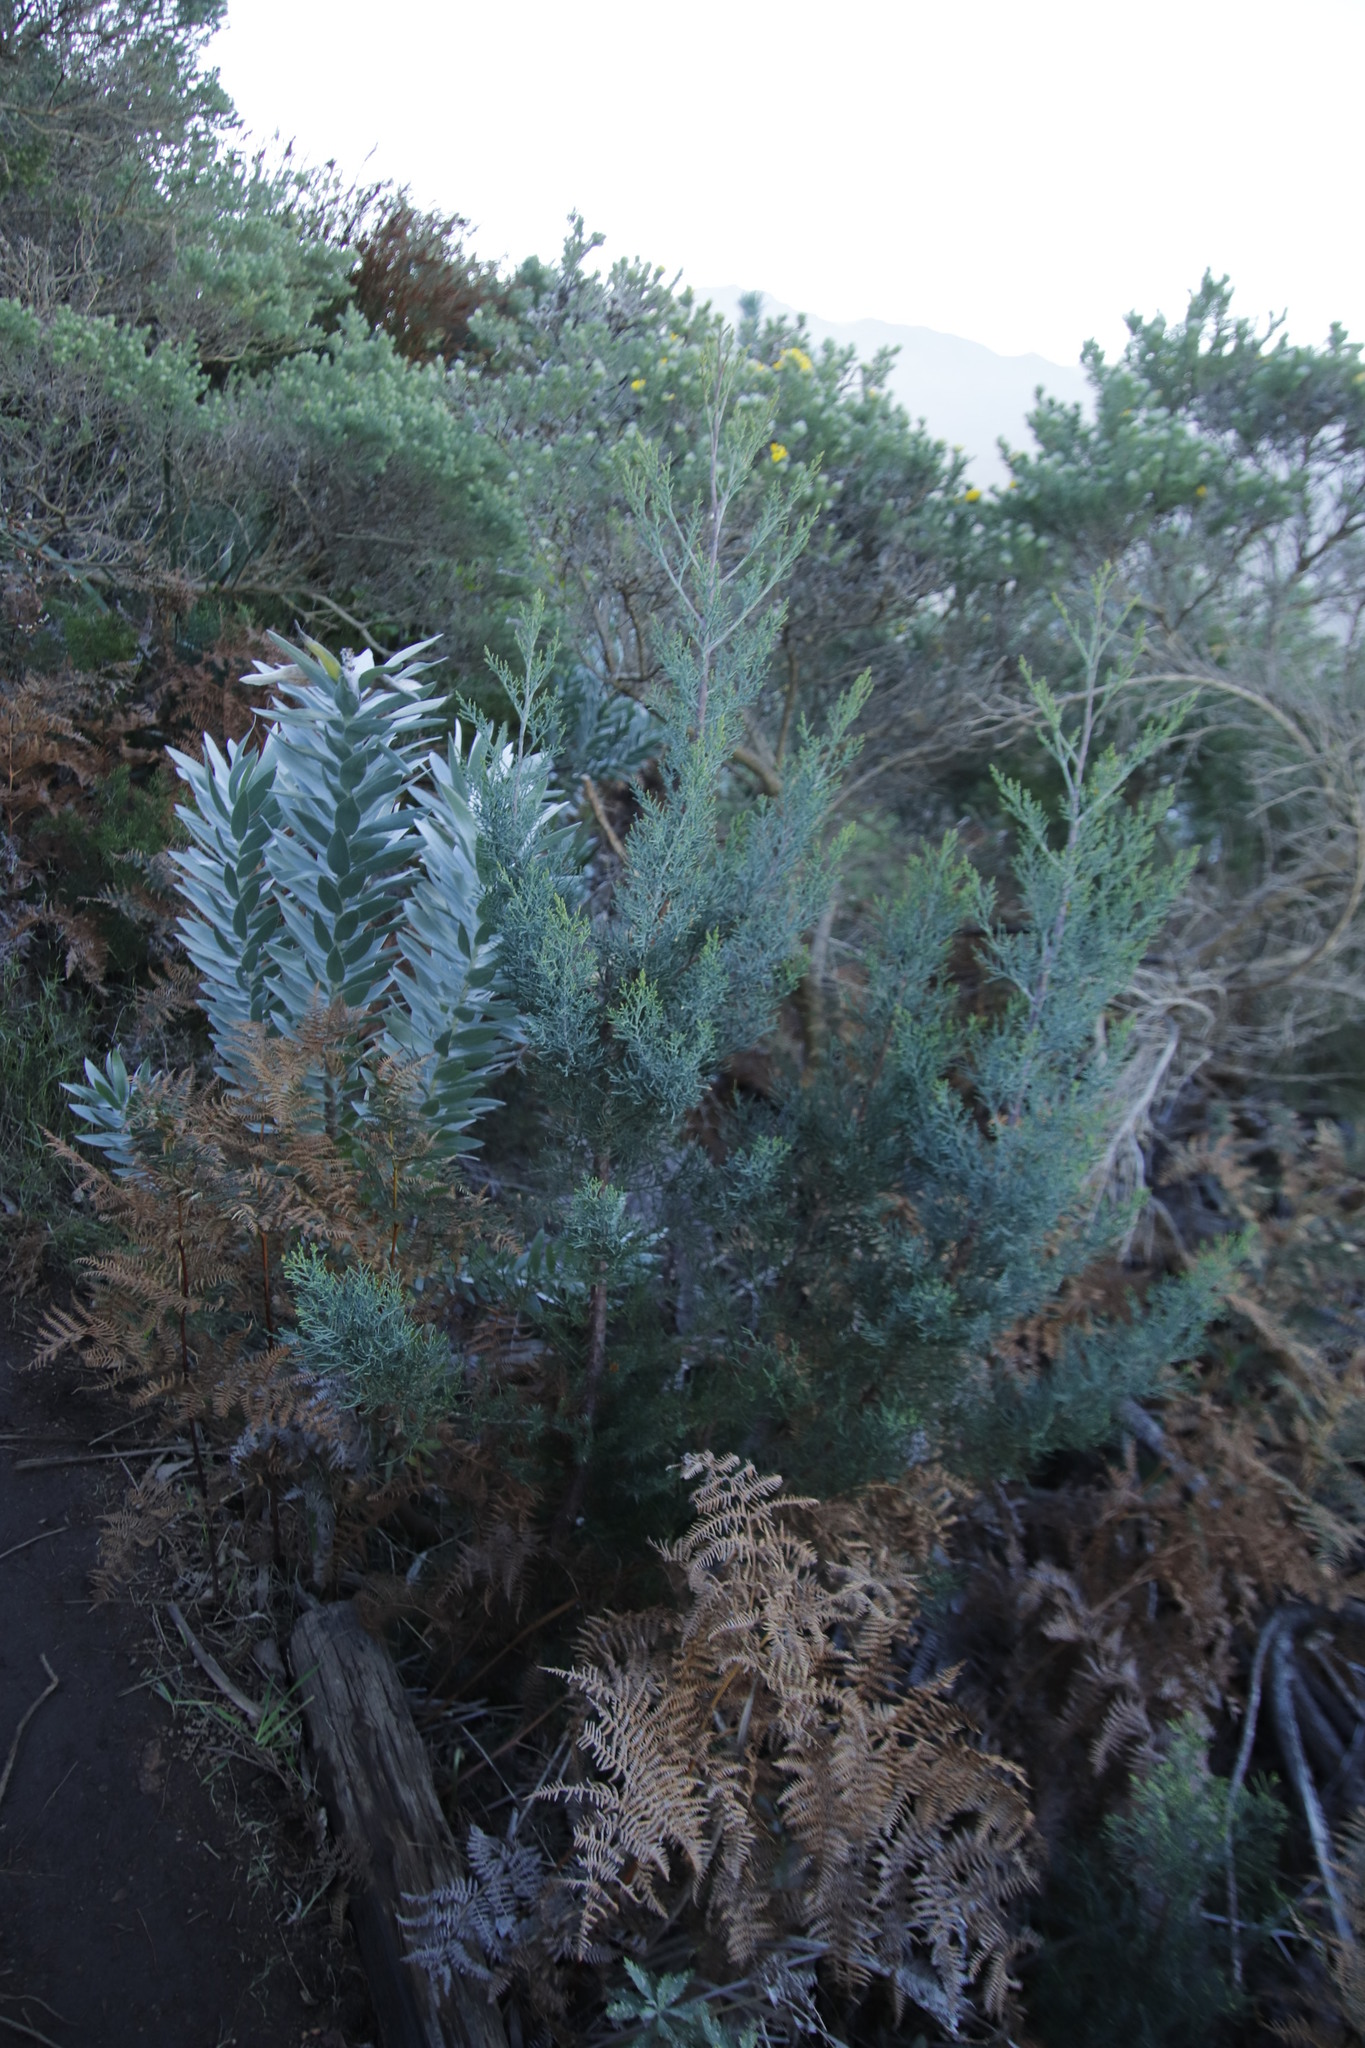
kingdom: Plantae
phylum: Tracheophyta
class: Pinopsida
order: Pinales
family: Cupressaceae
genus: Widdringtonia
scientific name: Widdringtonia nodiflora
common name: Cape cypress
